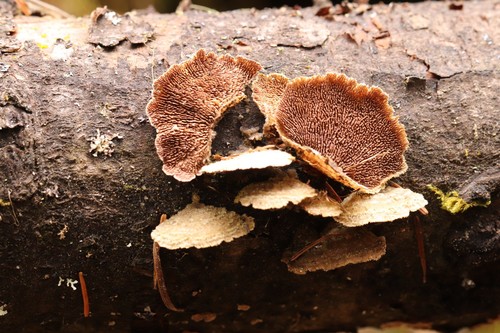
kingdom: Fungi
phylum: Basidiomycota
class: Agaricomycetes
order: Hymenochaetales
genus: Trichaptum
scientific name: Trichaptum fuscoviolaceum
